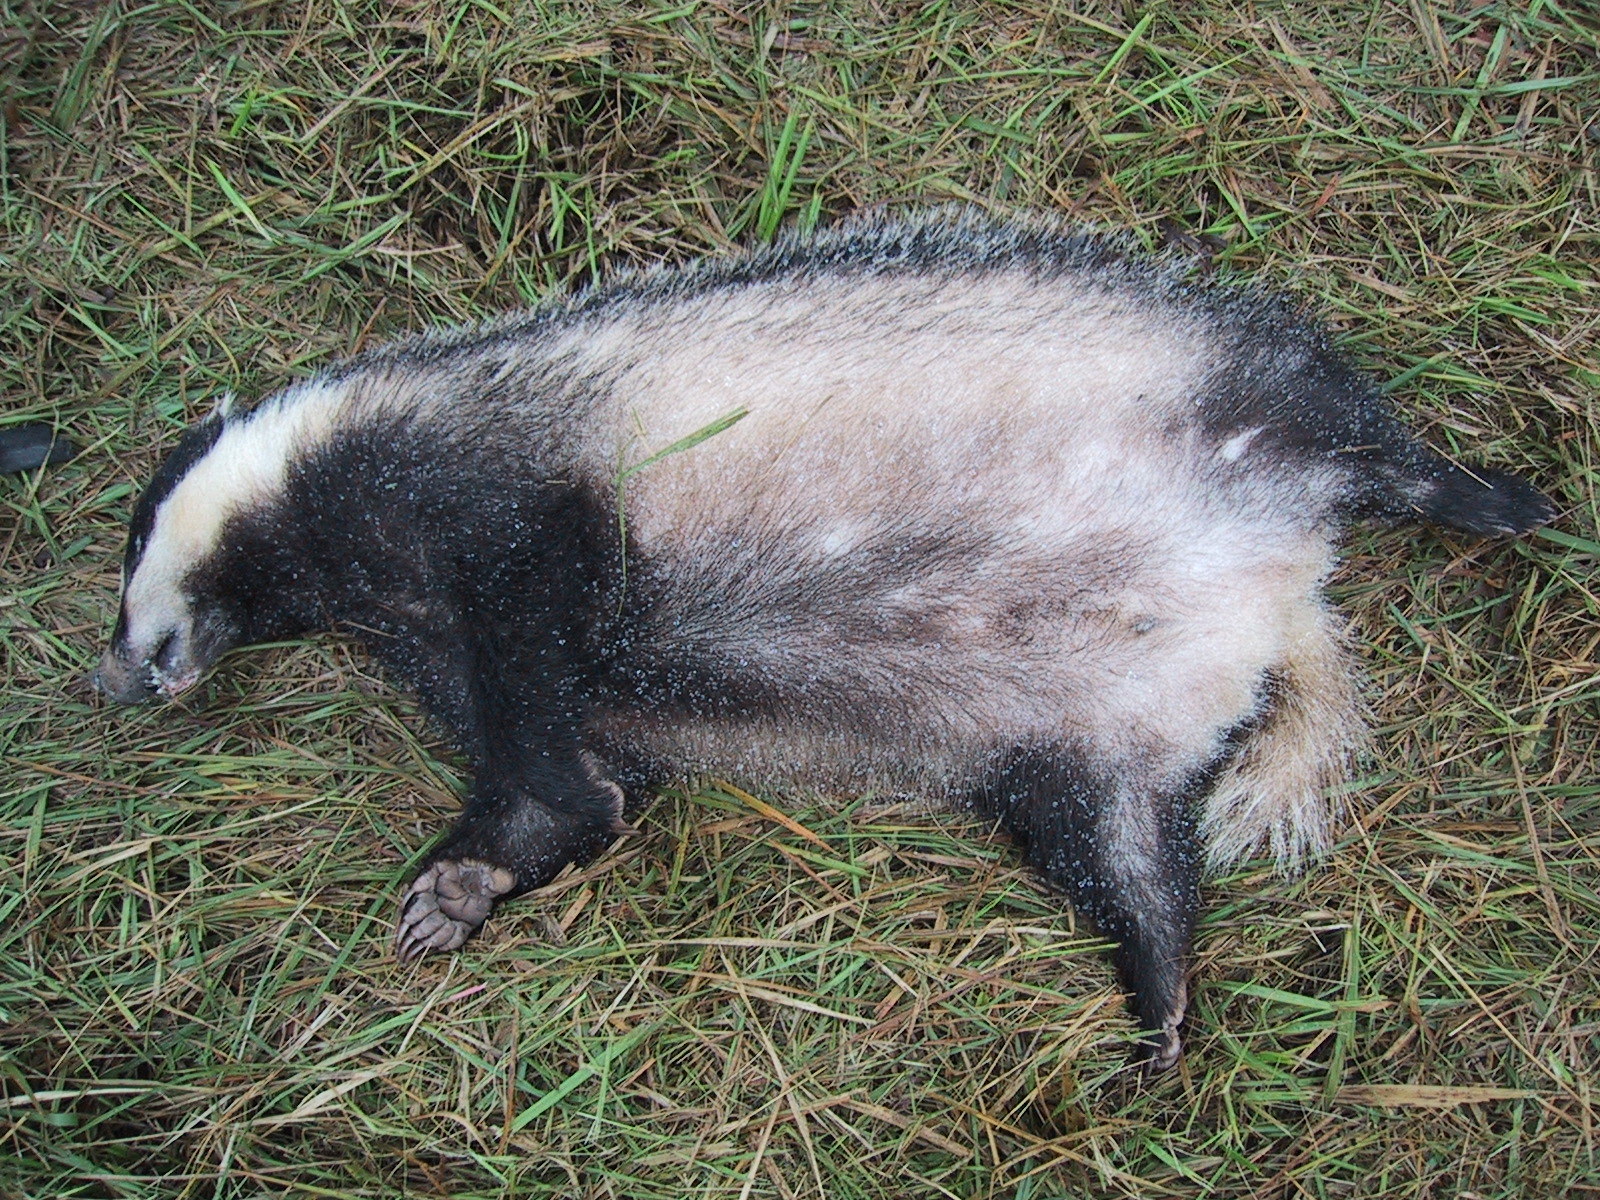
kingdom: Animalia
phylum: Chordata
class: Mammalia
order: Carnivora
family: Mustelidae
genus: Meles
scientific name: Meles meles
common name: Eurasian badger
